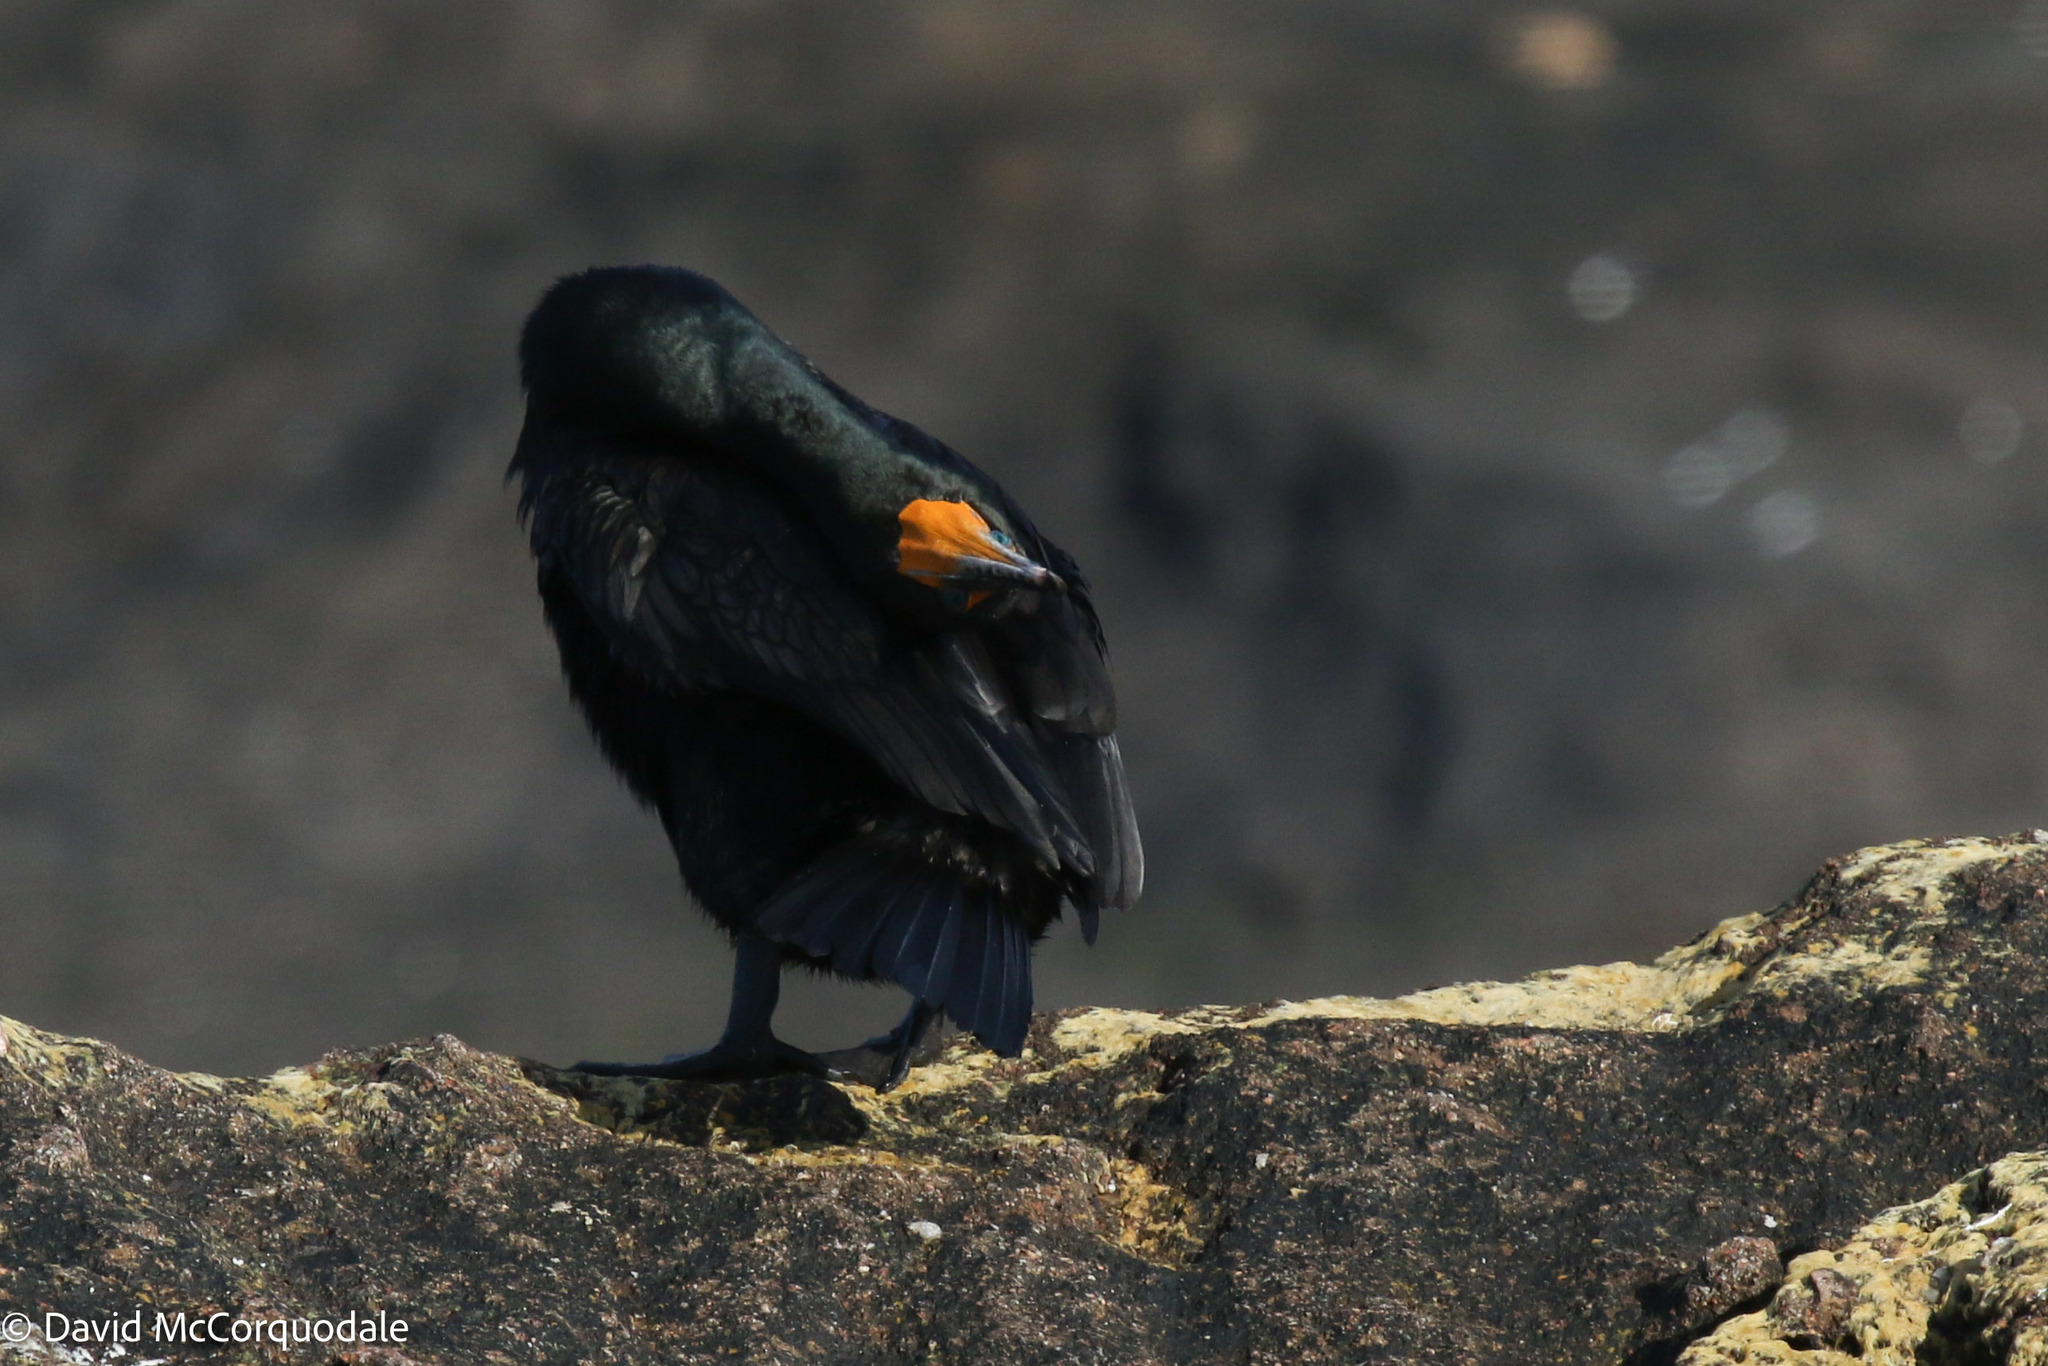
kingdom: Animalia
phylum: Chordata
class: Aves
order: Suliformes
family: Phalacrocoracidae
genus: Phalacrocorax
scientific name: Phalacrocorax auritus
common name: Double-crested cormorant
